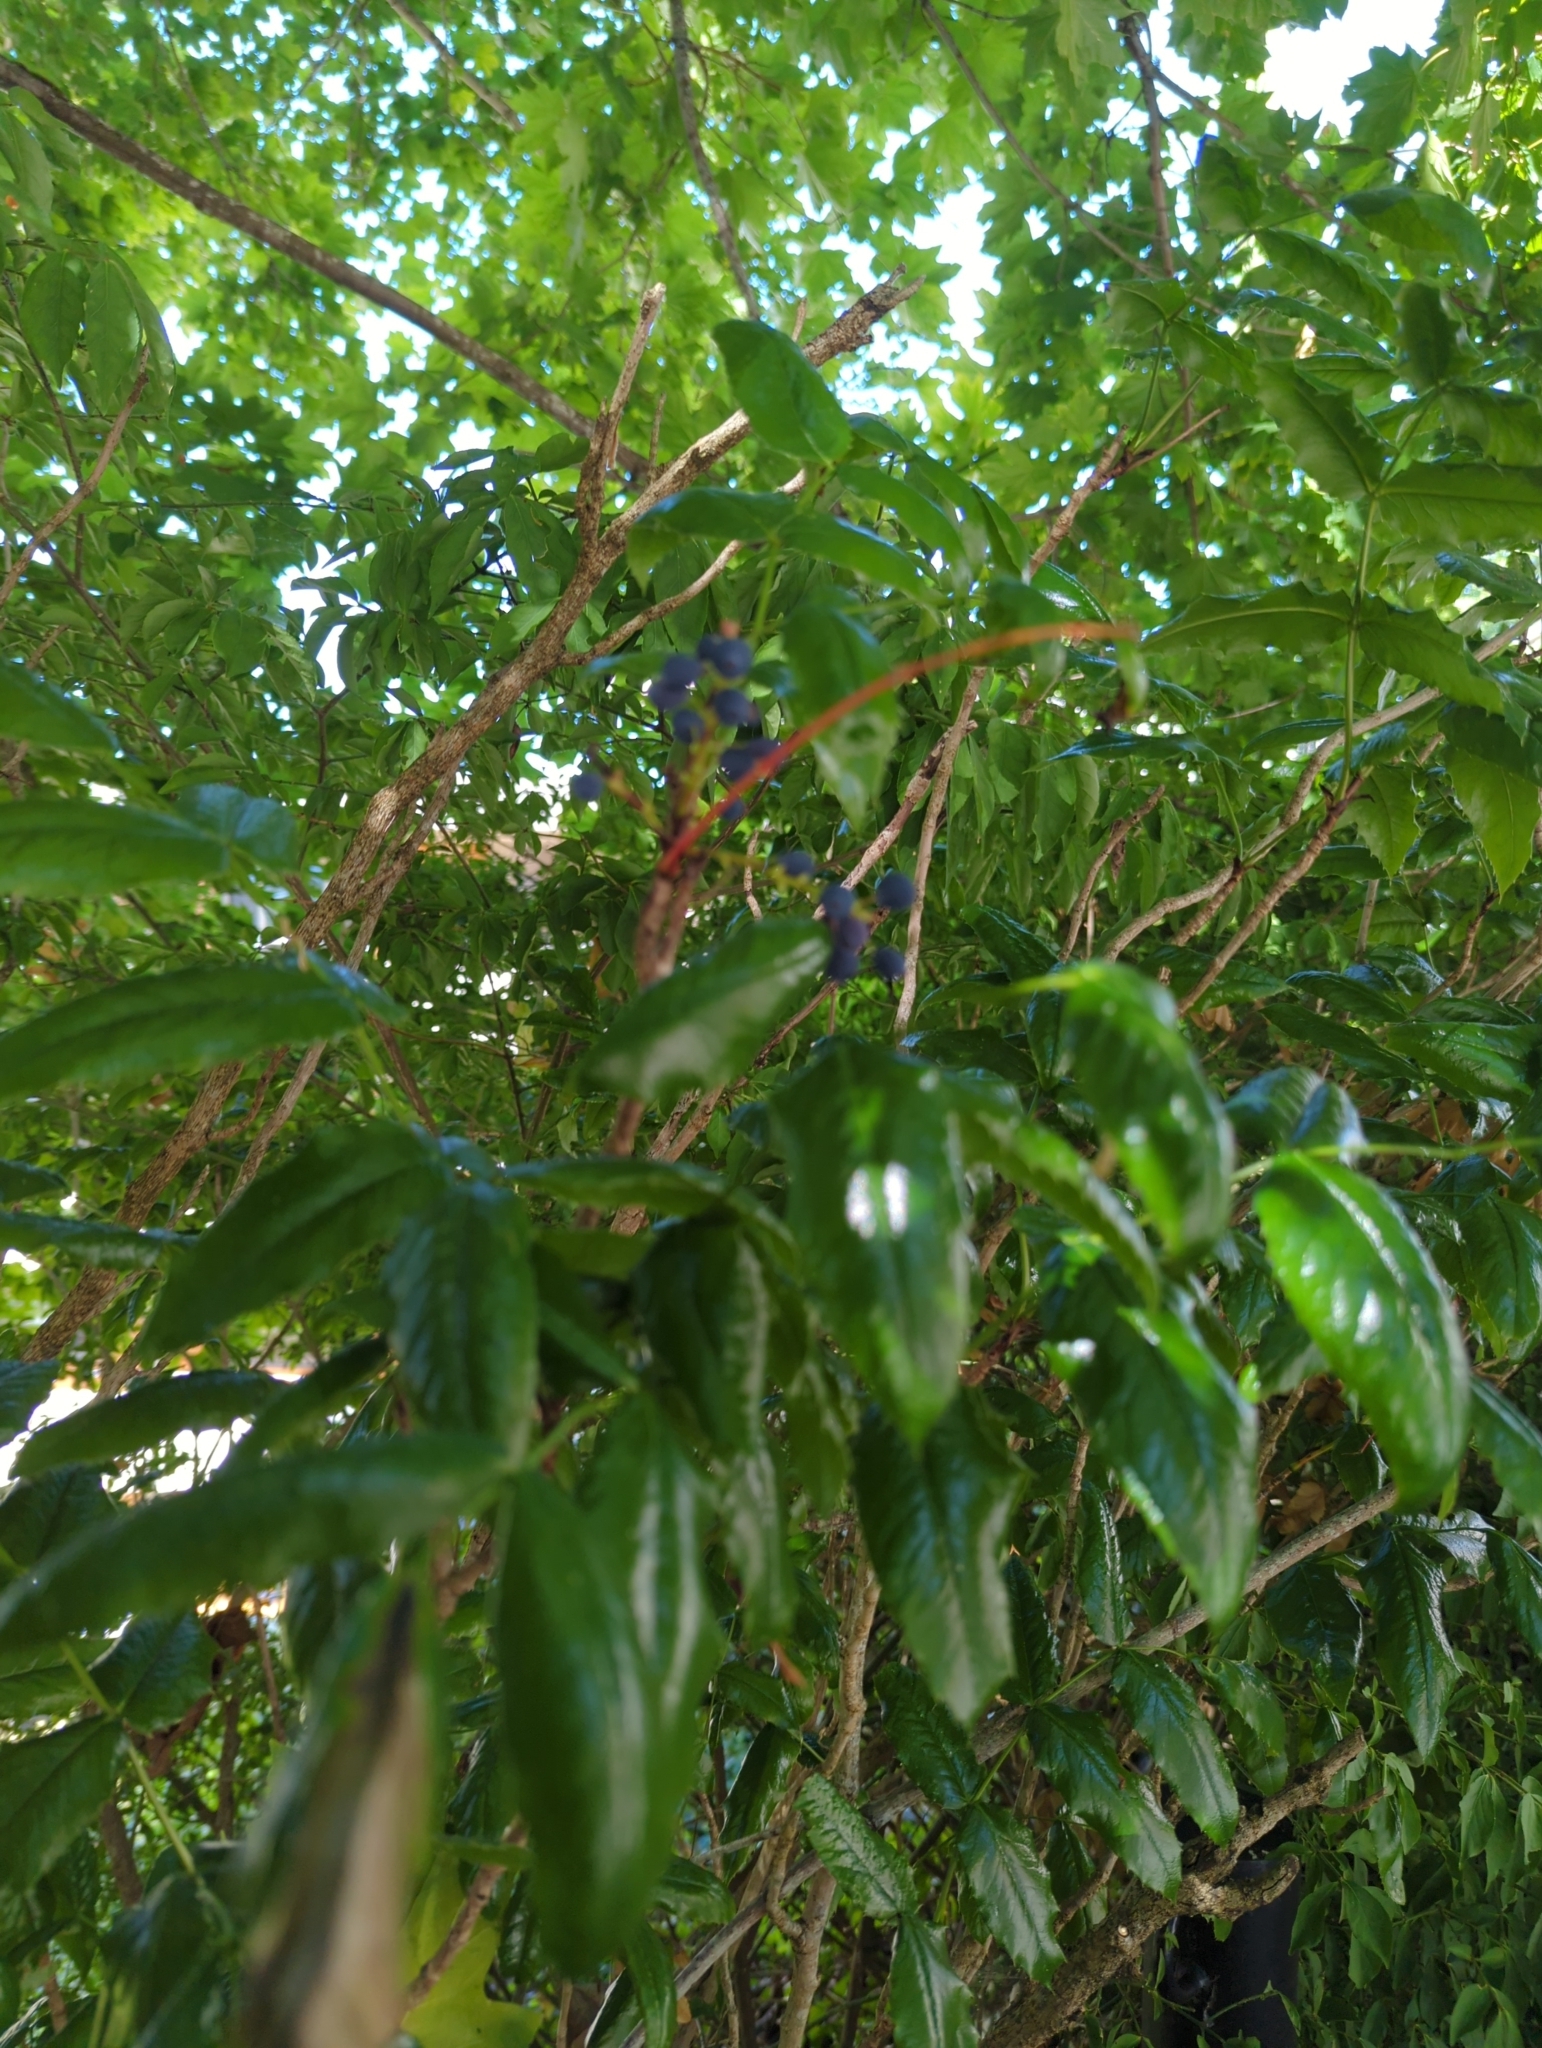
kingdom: Plantae
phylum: Tracheophyta
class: Magnoliopsida
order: Ranunculales
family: Berberidaceae
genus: Mahonia
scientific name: Mahonia aquifolium
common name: Oregon-grape
